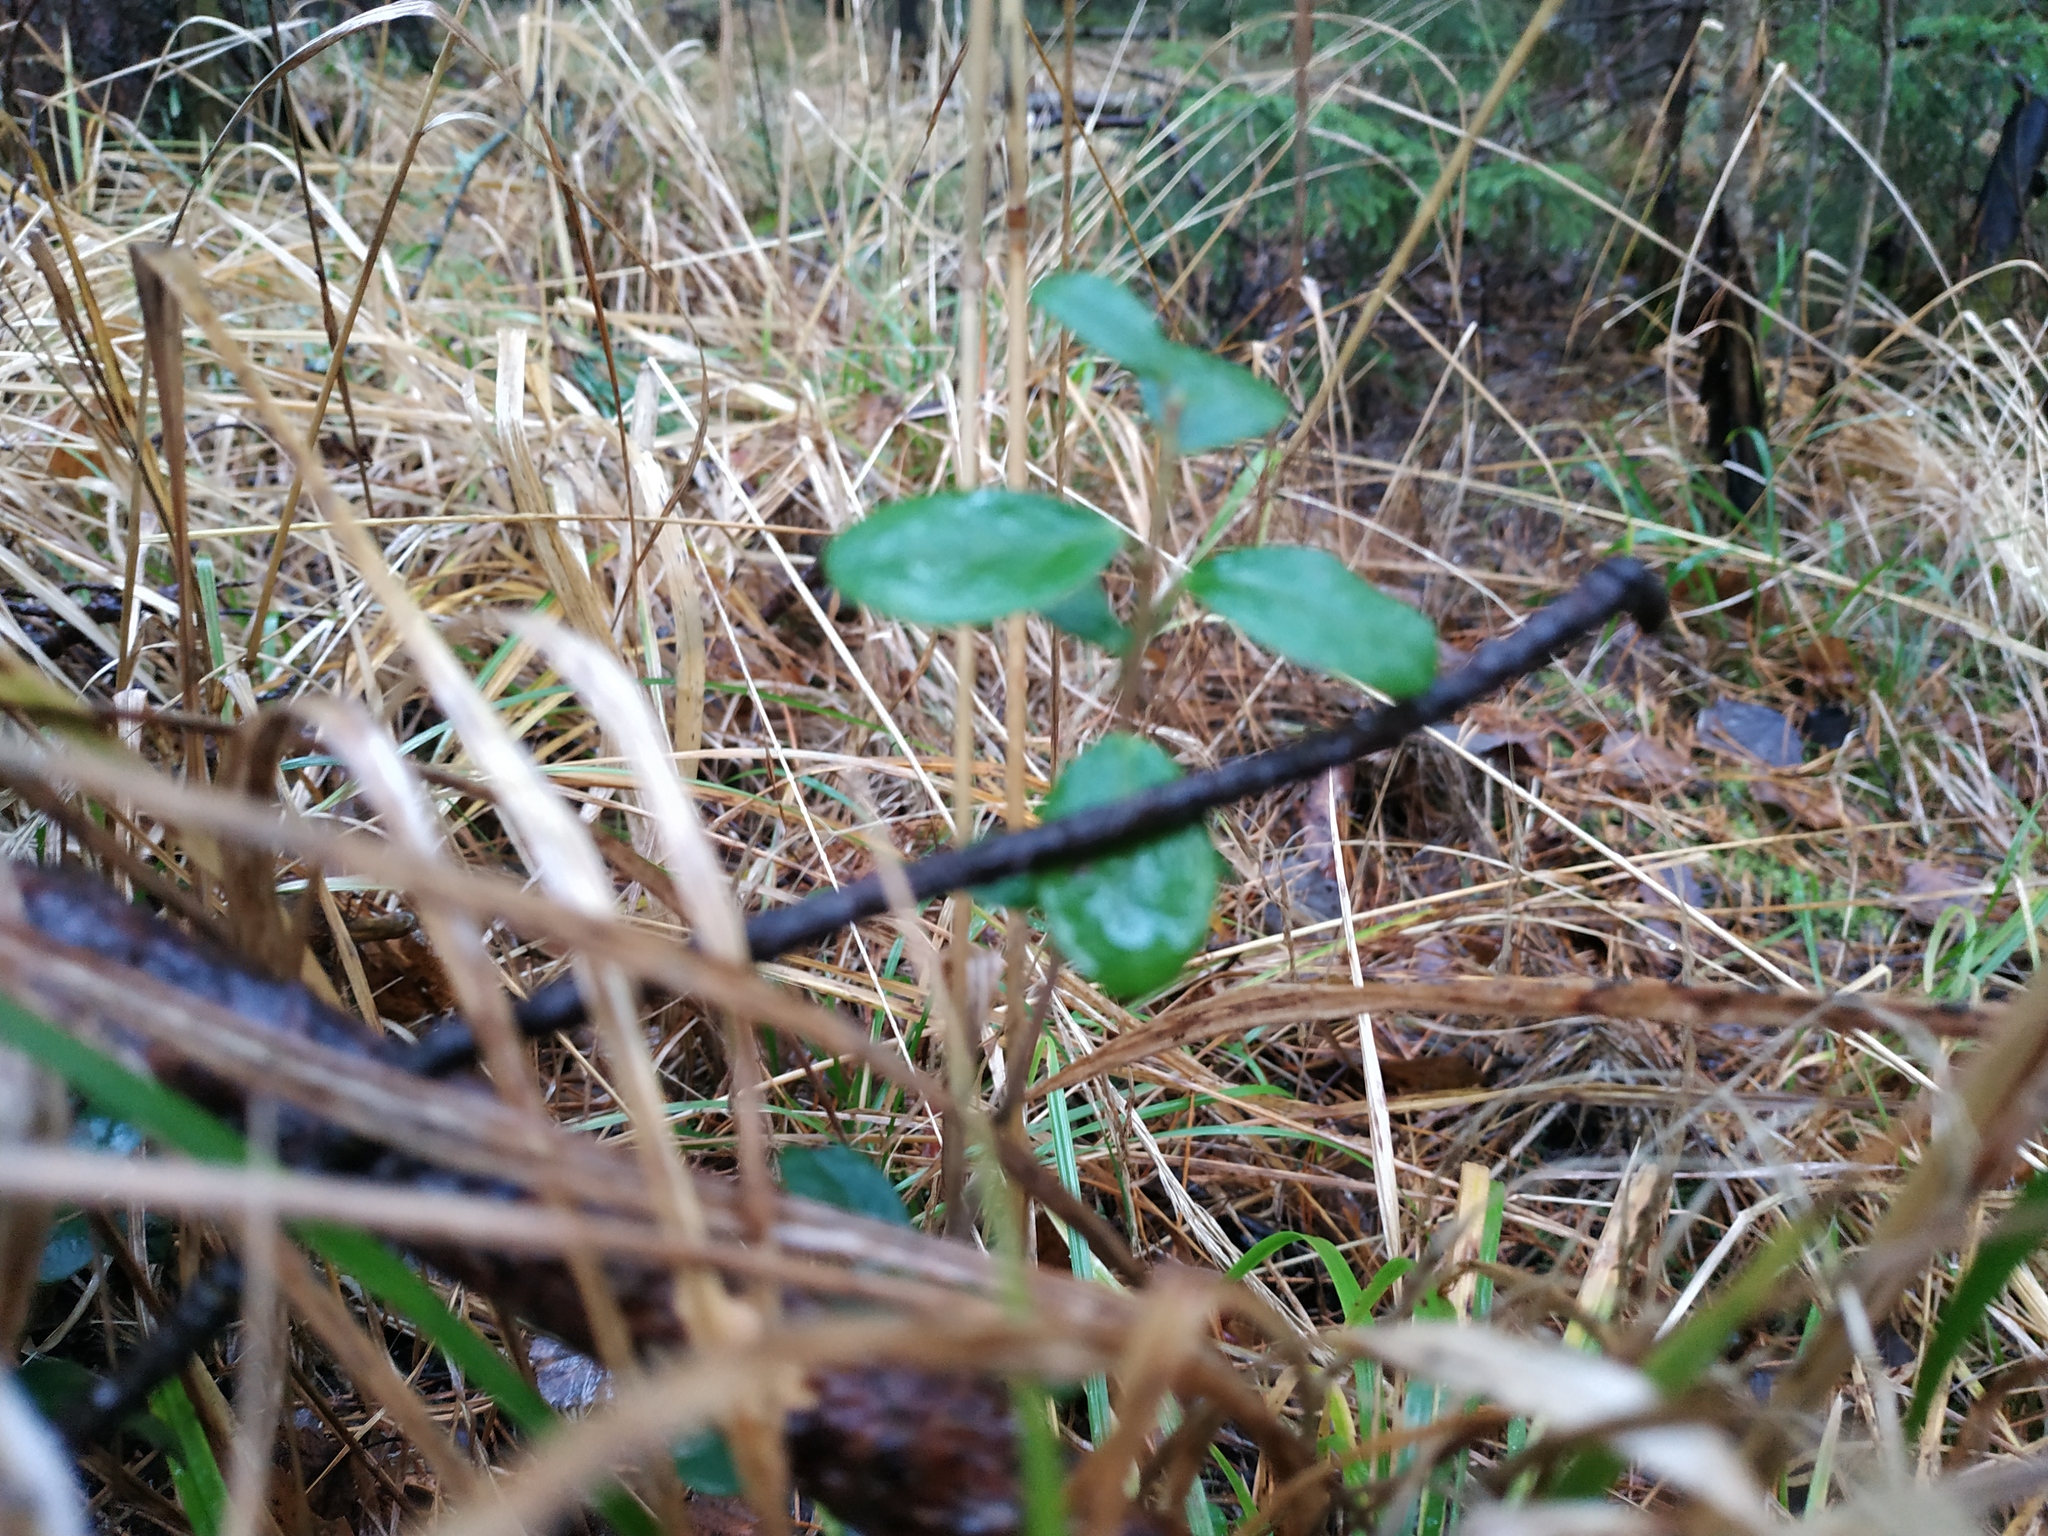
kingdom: Plantae
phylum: Tracheophyta
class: Magnoliopsida
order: Ericales
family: Ericaceae
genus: Vaccinium
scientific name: Vaccinium vitis-idaea
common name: Cowberry
